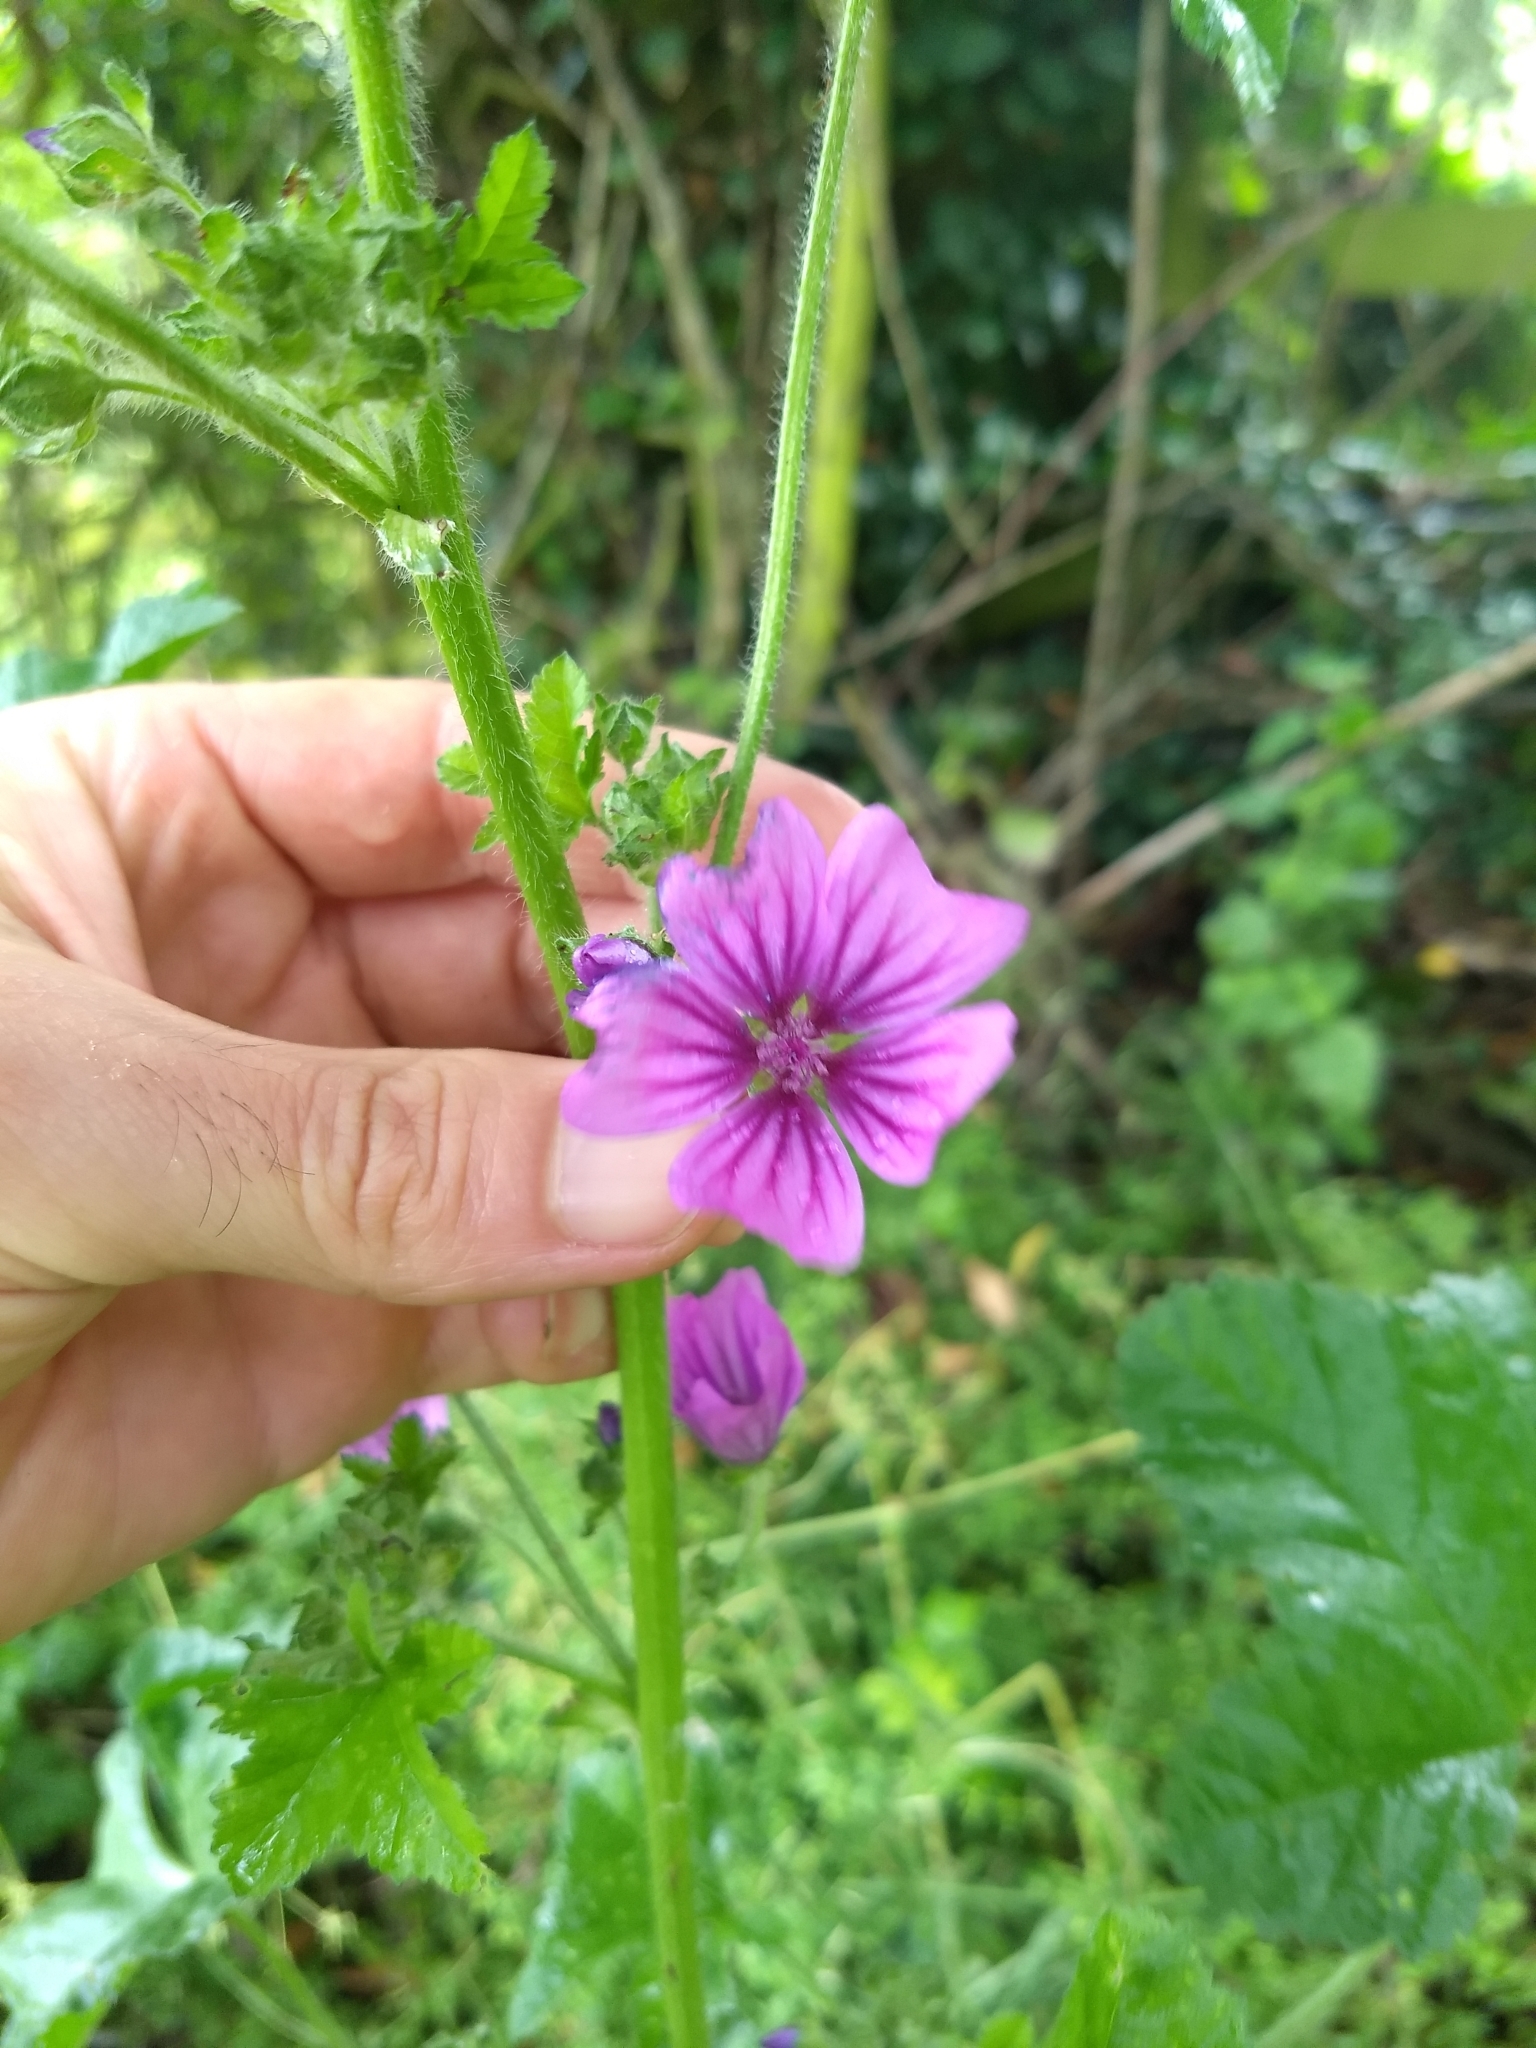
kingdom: Plantae
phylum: Tracheophyta
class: Magnoliopsida
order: Malvales
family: Malvaceae
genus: Malva
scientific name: Malva sylvestris
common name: Common mallow
